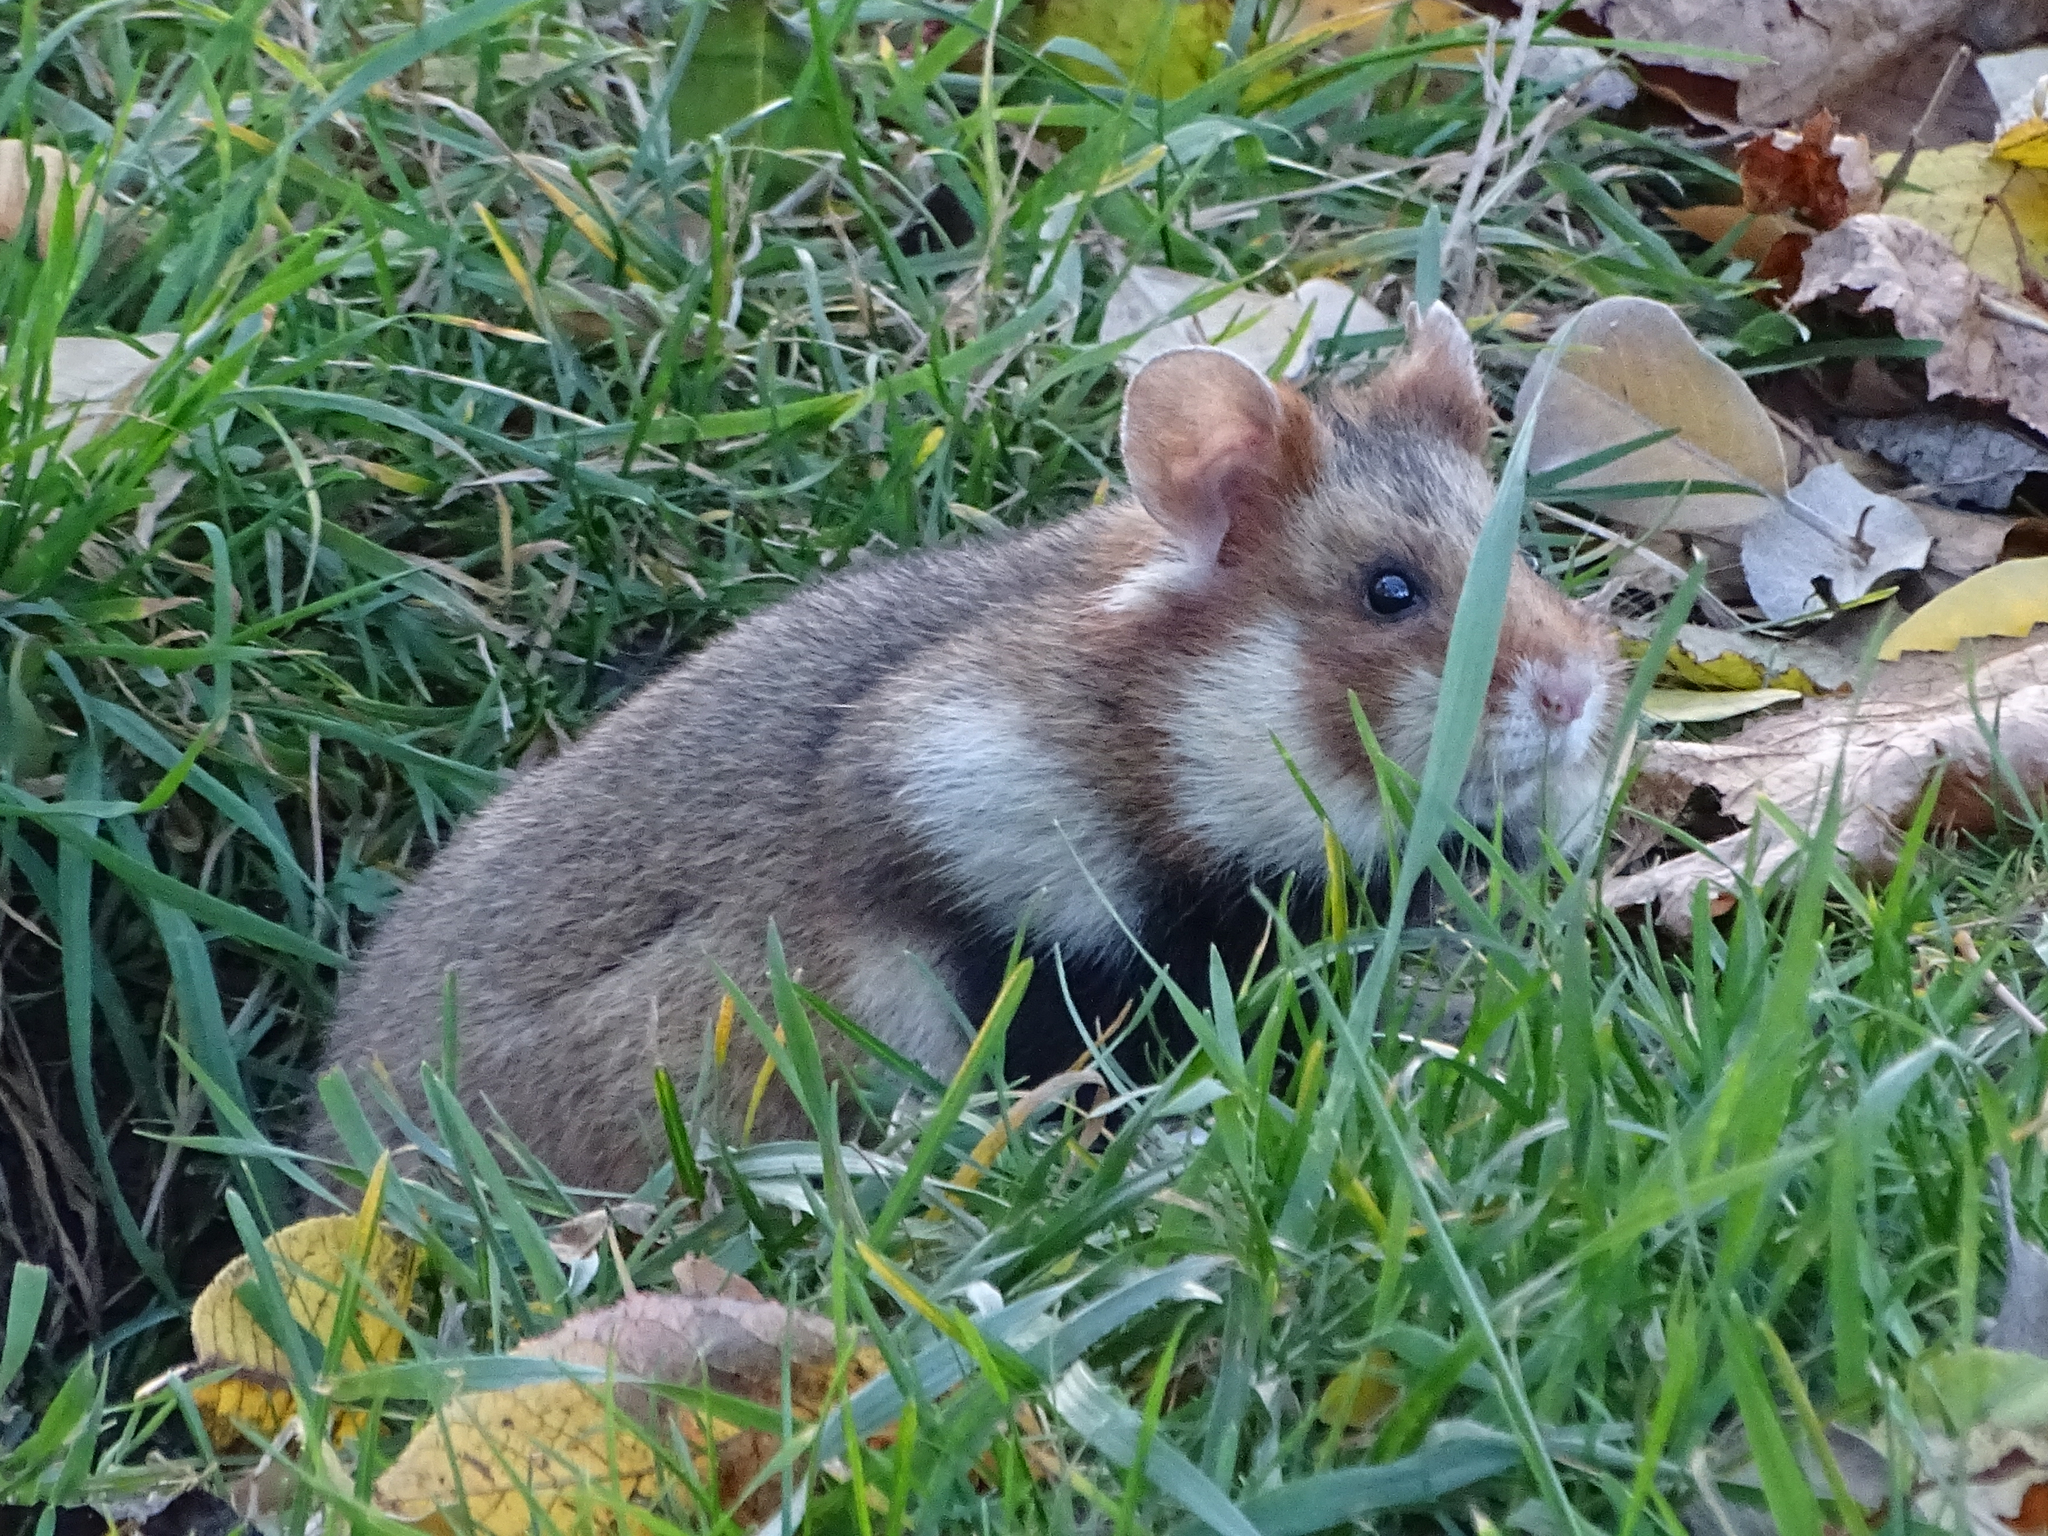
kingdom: Animalia
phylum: Chordata
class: Mammalia
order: Rodentia
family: Cricetidae
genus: Cricetus
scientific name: Cricetus cricetus
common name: Common hamster
